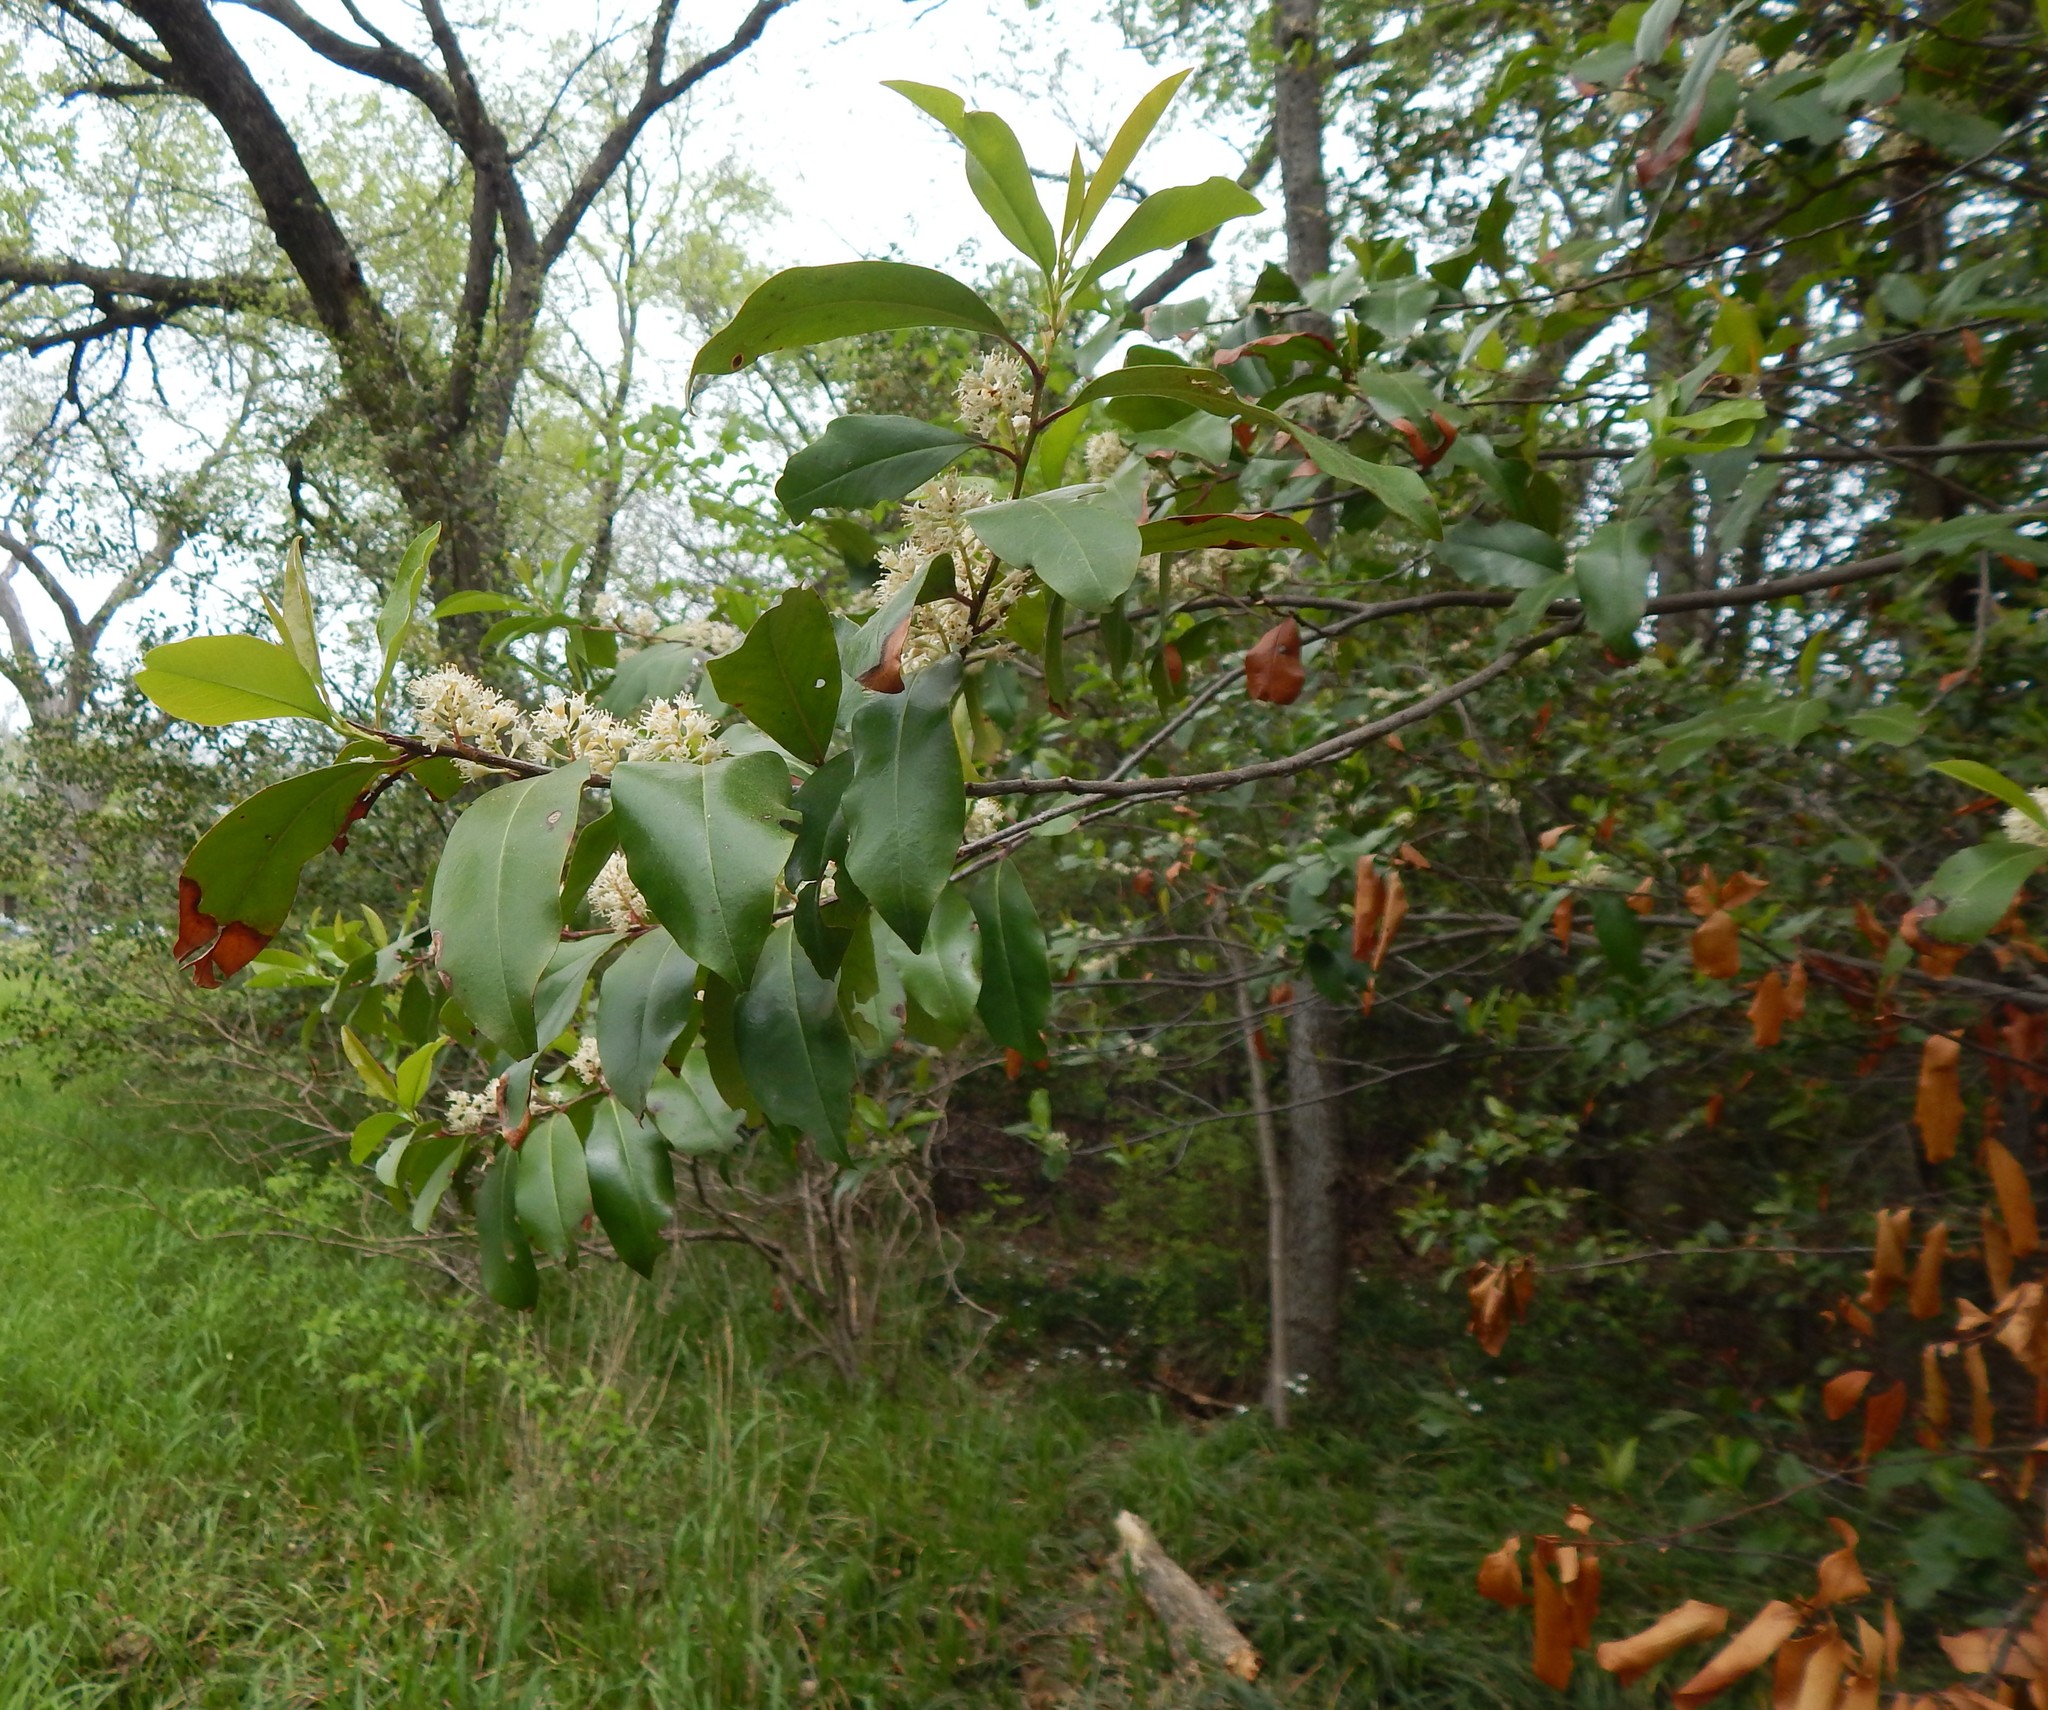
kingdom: Plantae
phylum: Tracheophyta
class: Magnoliopsida
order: Rosales
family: Rosaceae
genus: Prunus
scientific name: Prunus caroliniana
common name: Carolina laurel cherry
